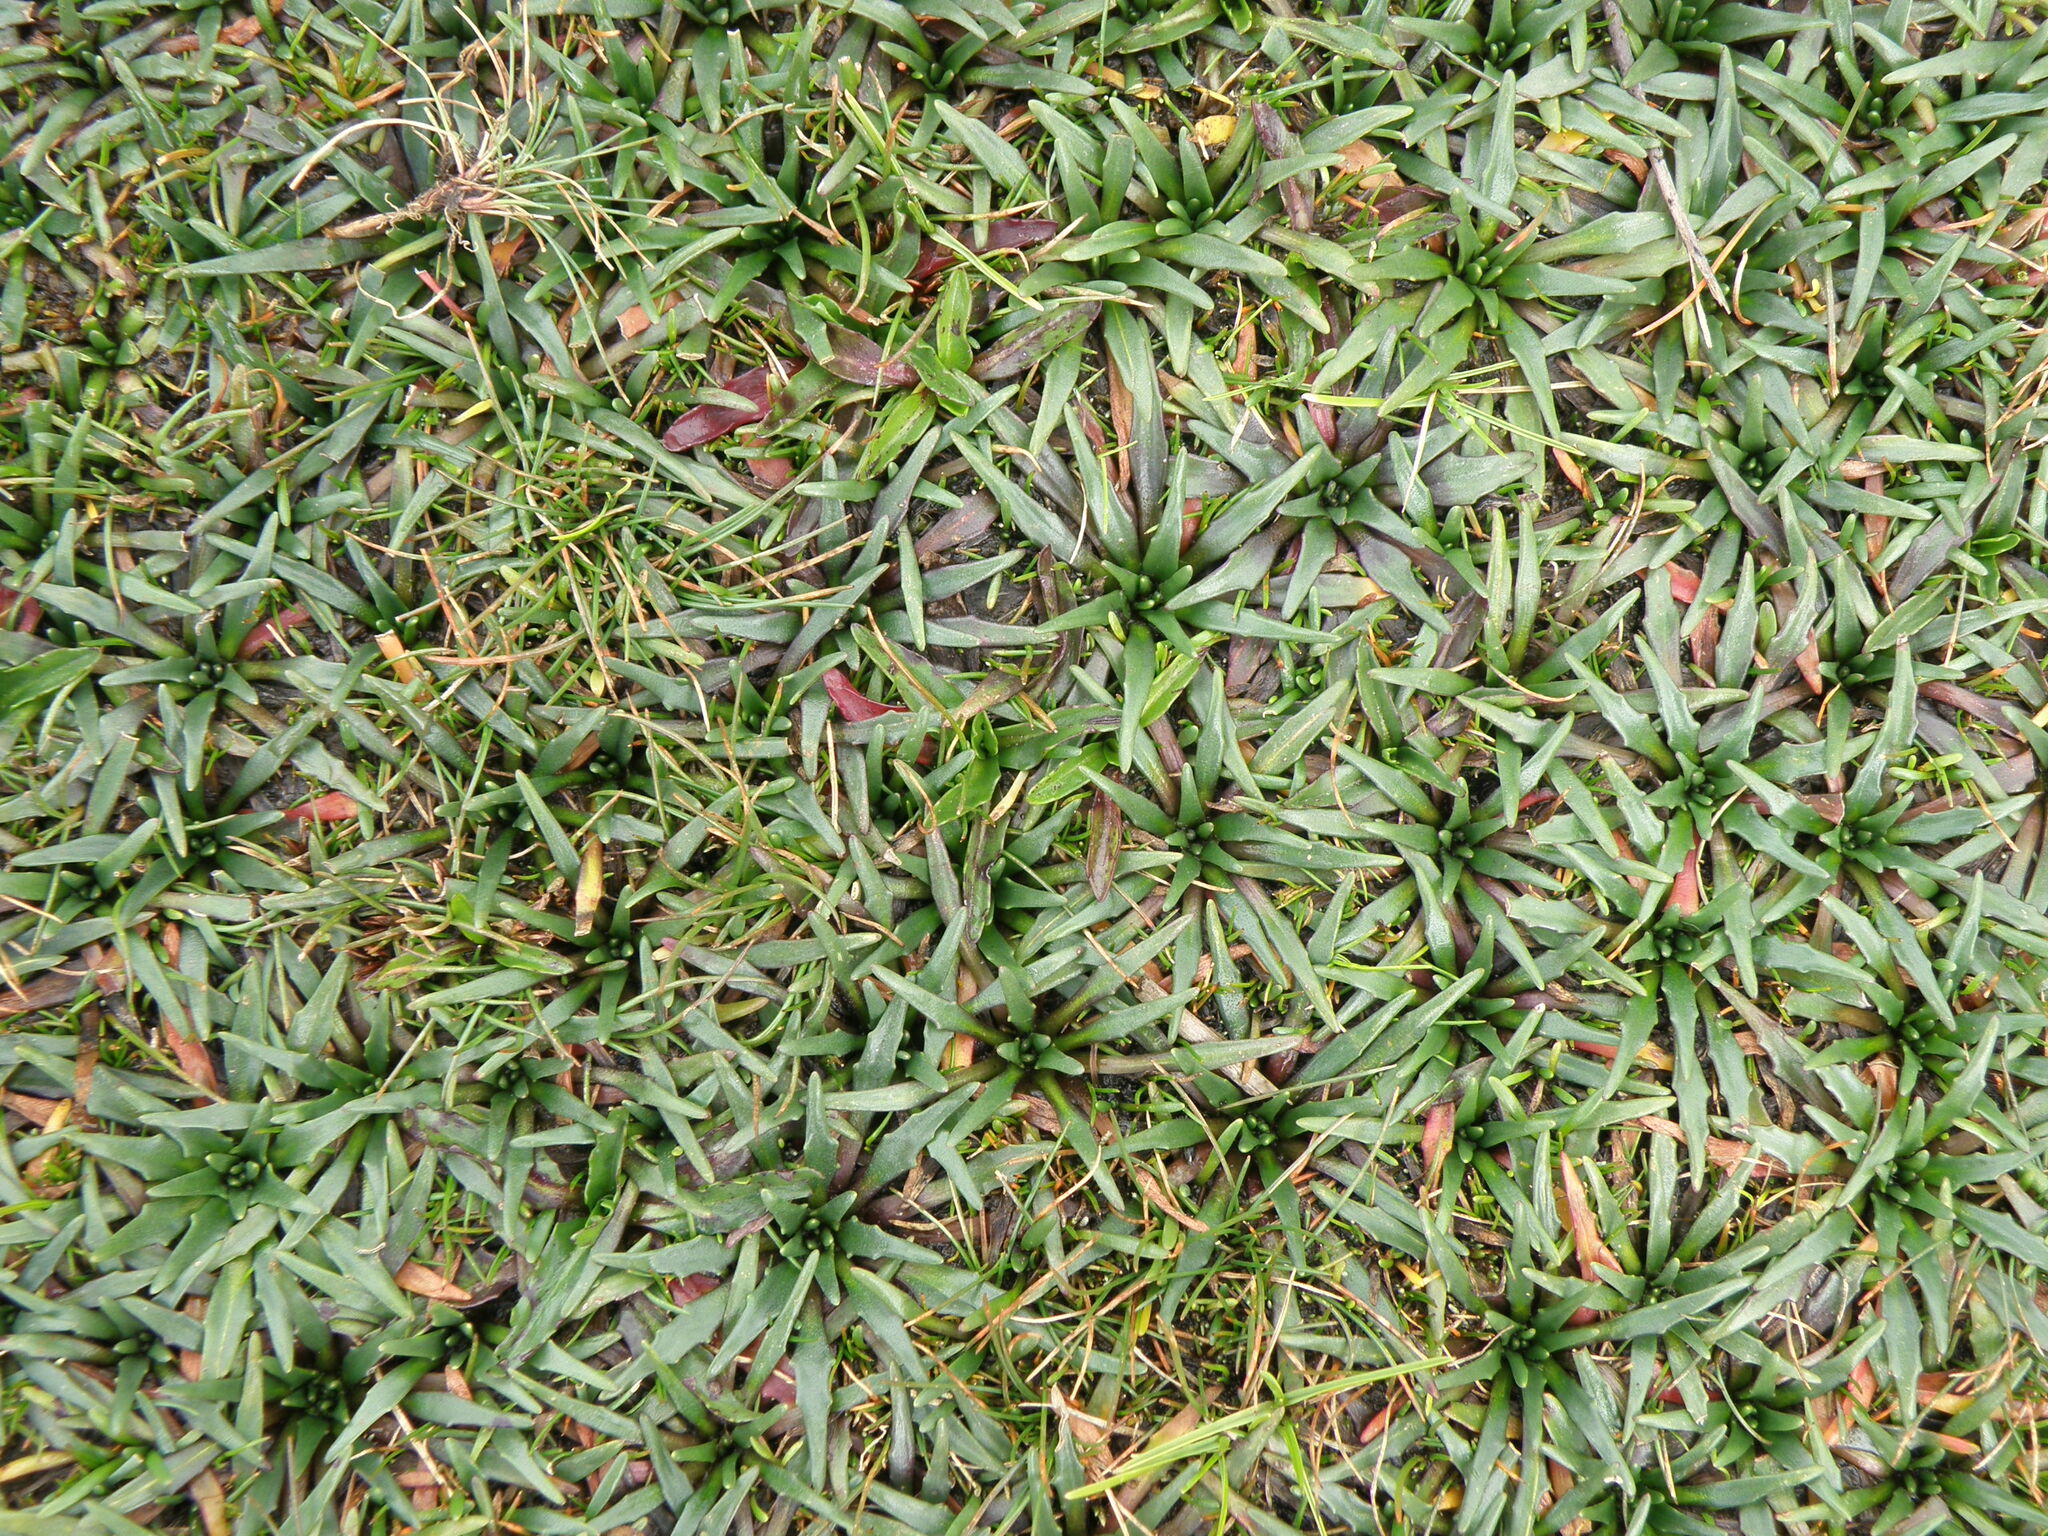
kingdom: Plantae
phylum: Tracheophyta
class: Magnoliopsida
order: Lamiales
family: Plantaginaceae
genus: Plantago
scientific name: Plantago tubulosa
